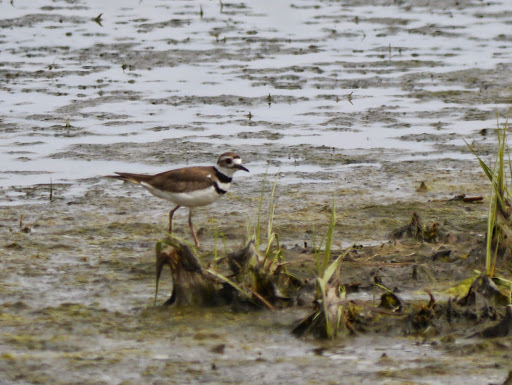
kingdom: Animalia
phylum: Chordata
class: Aves
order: Charadriiformes
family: Charadriidae
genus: Charadrius
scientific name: Charadrius vociferus
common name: Killdeer
